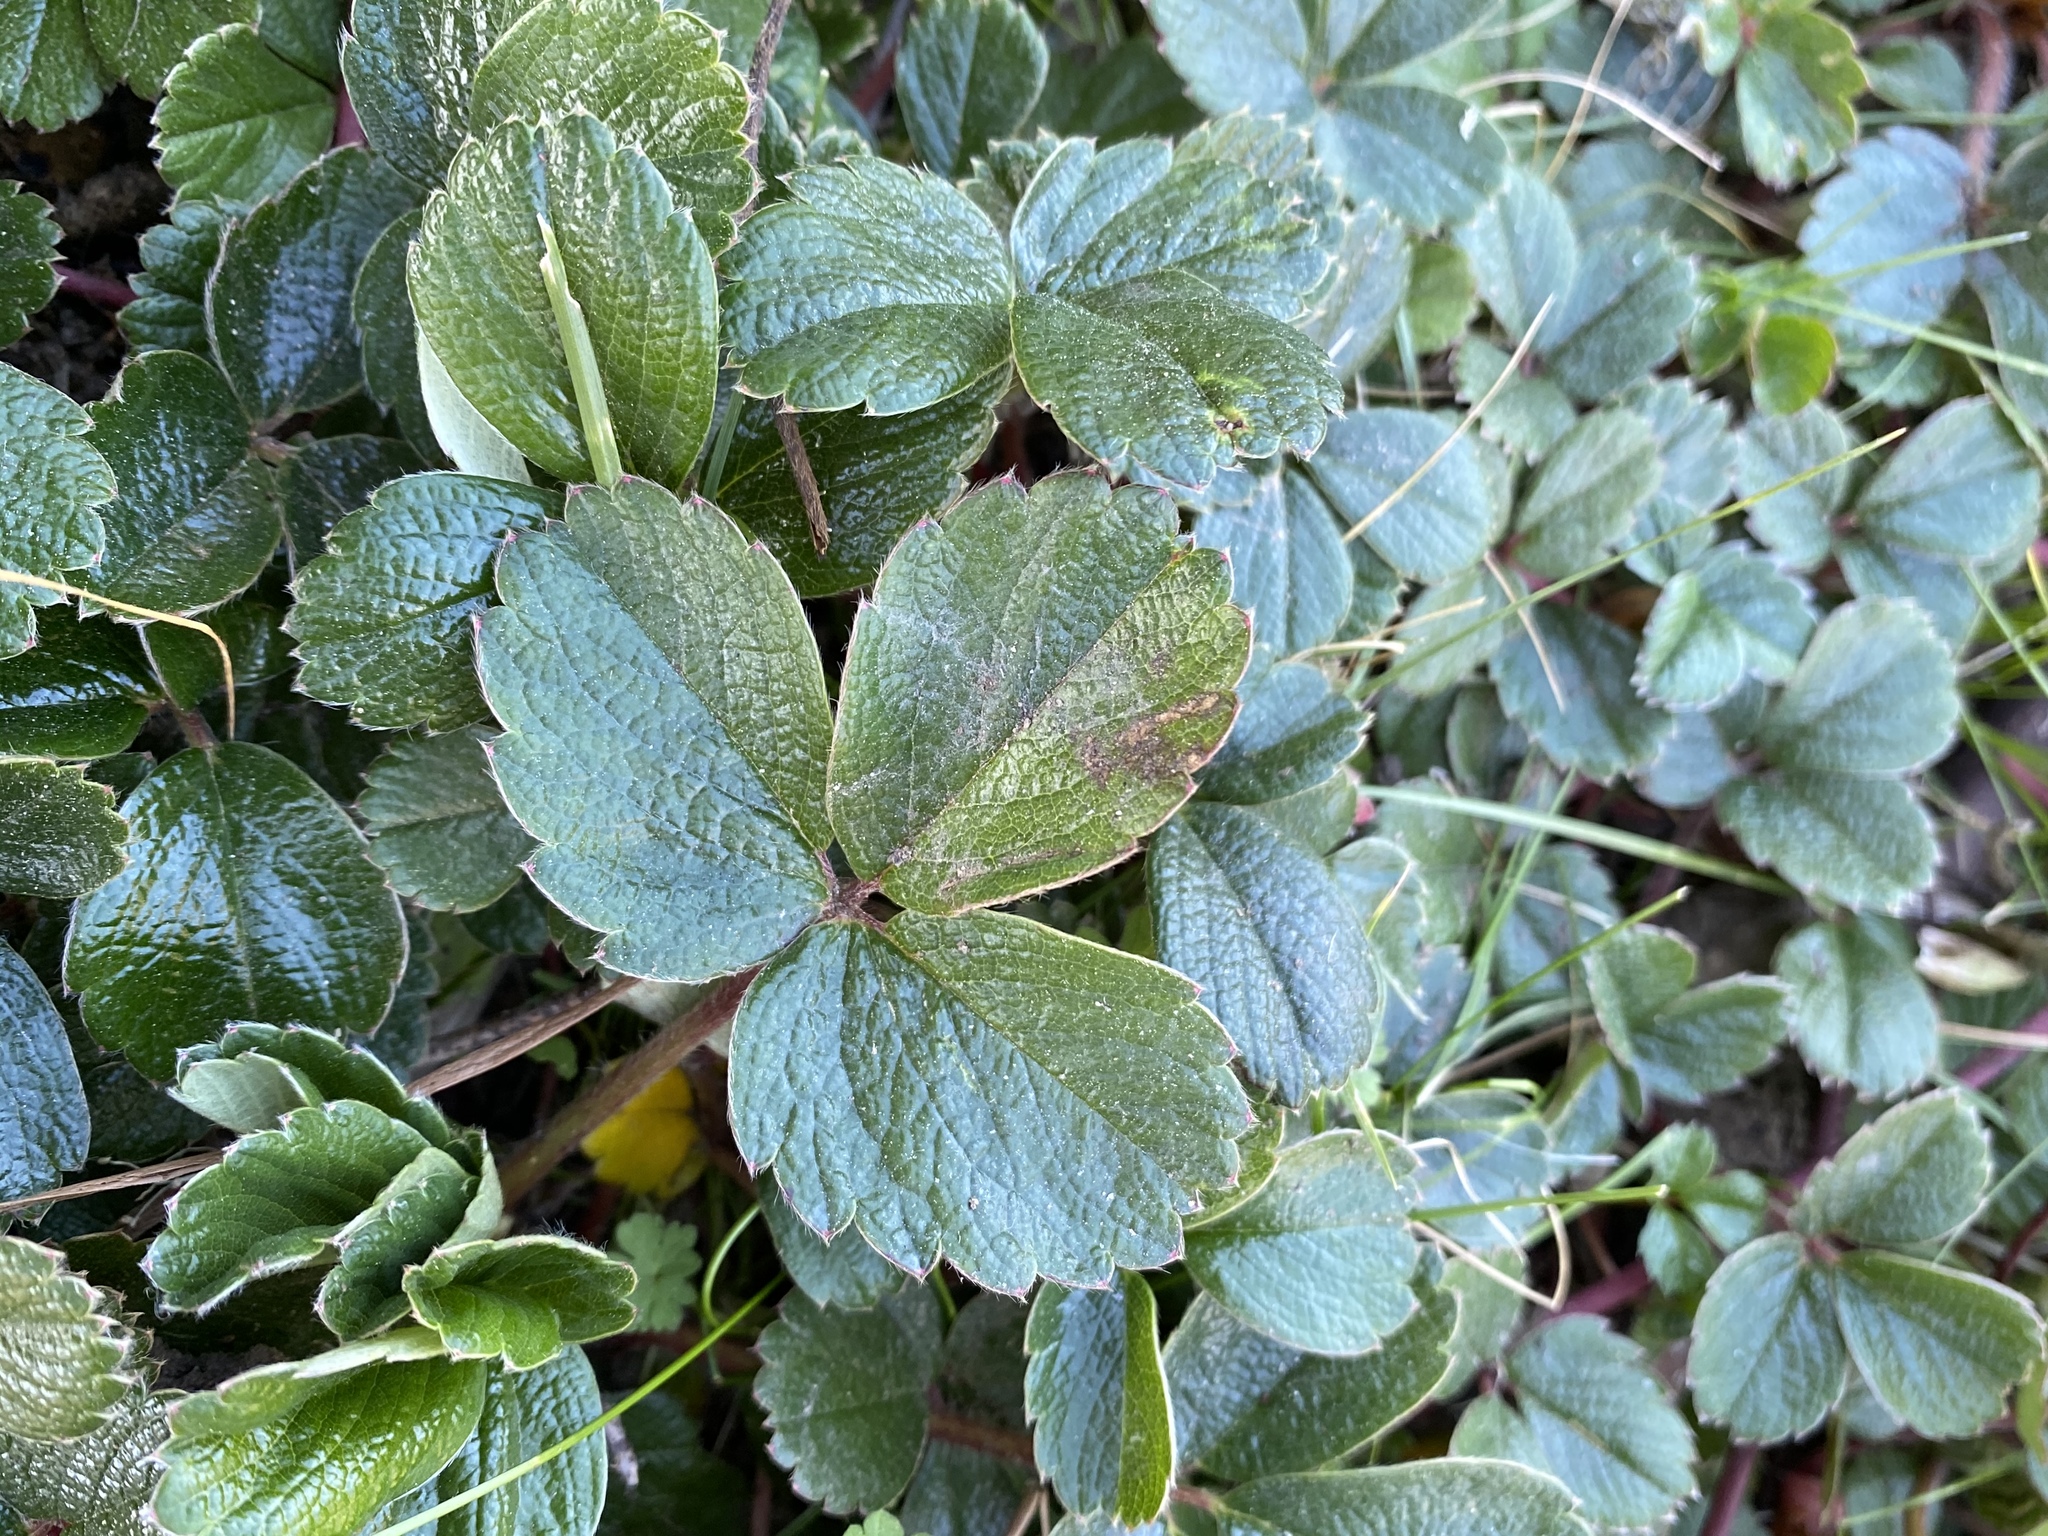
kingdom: Plantae
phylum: Tracheophyta
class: Magnoliopsida
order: Rosales
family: Rosaceae
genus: Fragaria
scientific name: Fragaria chiloensis
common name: Beach strawberry
